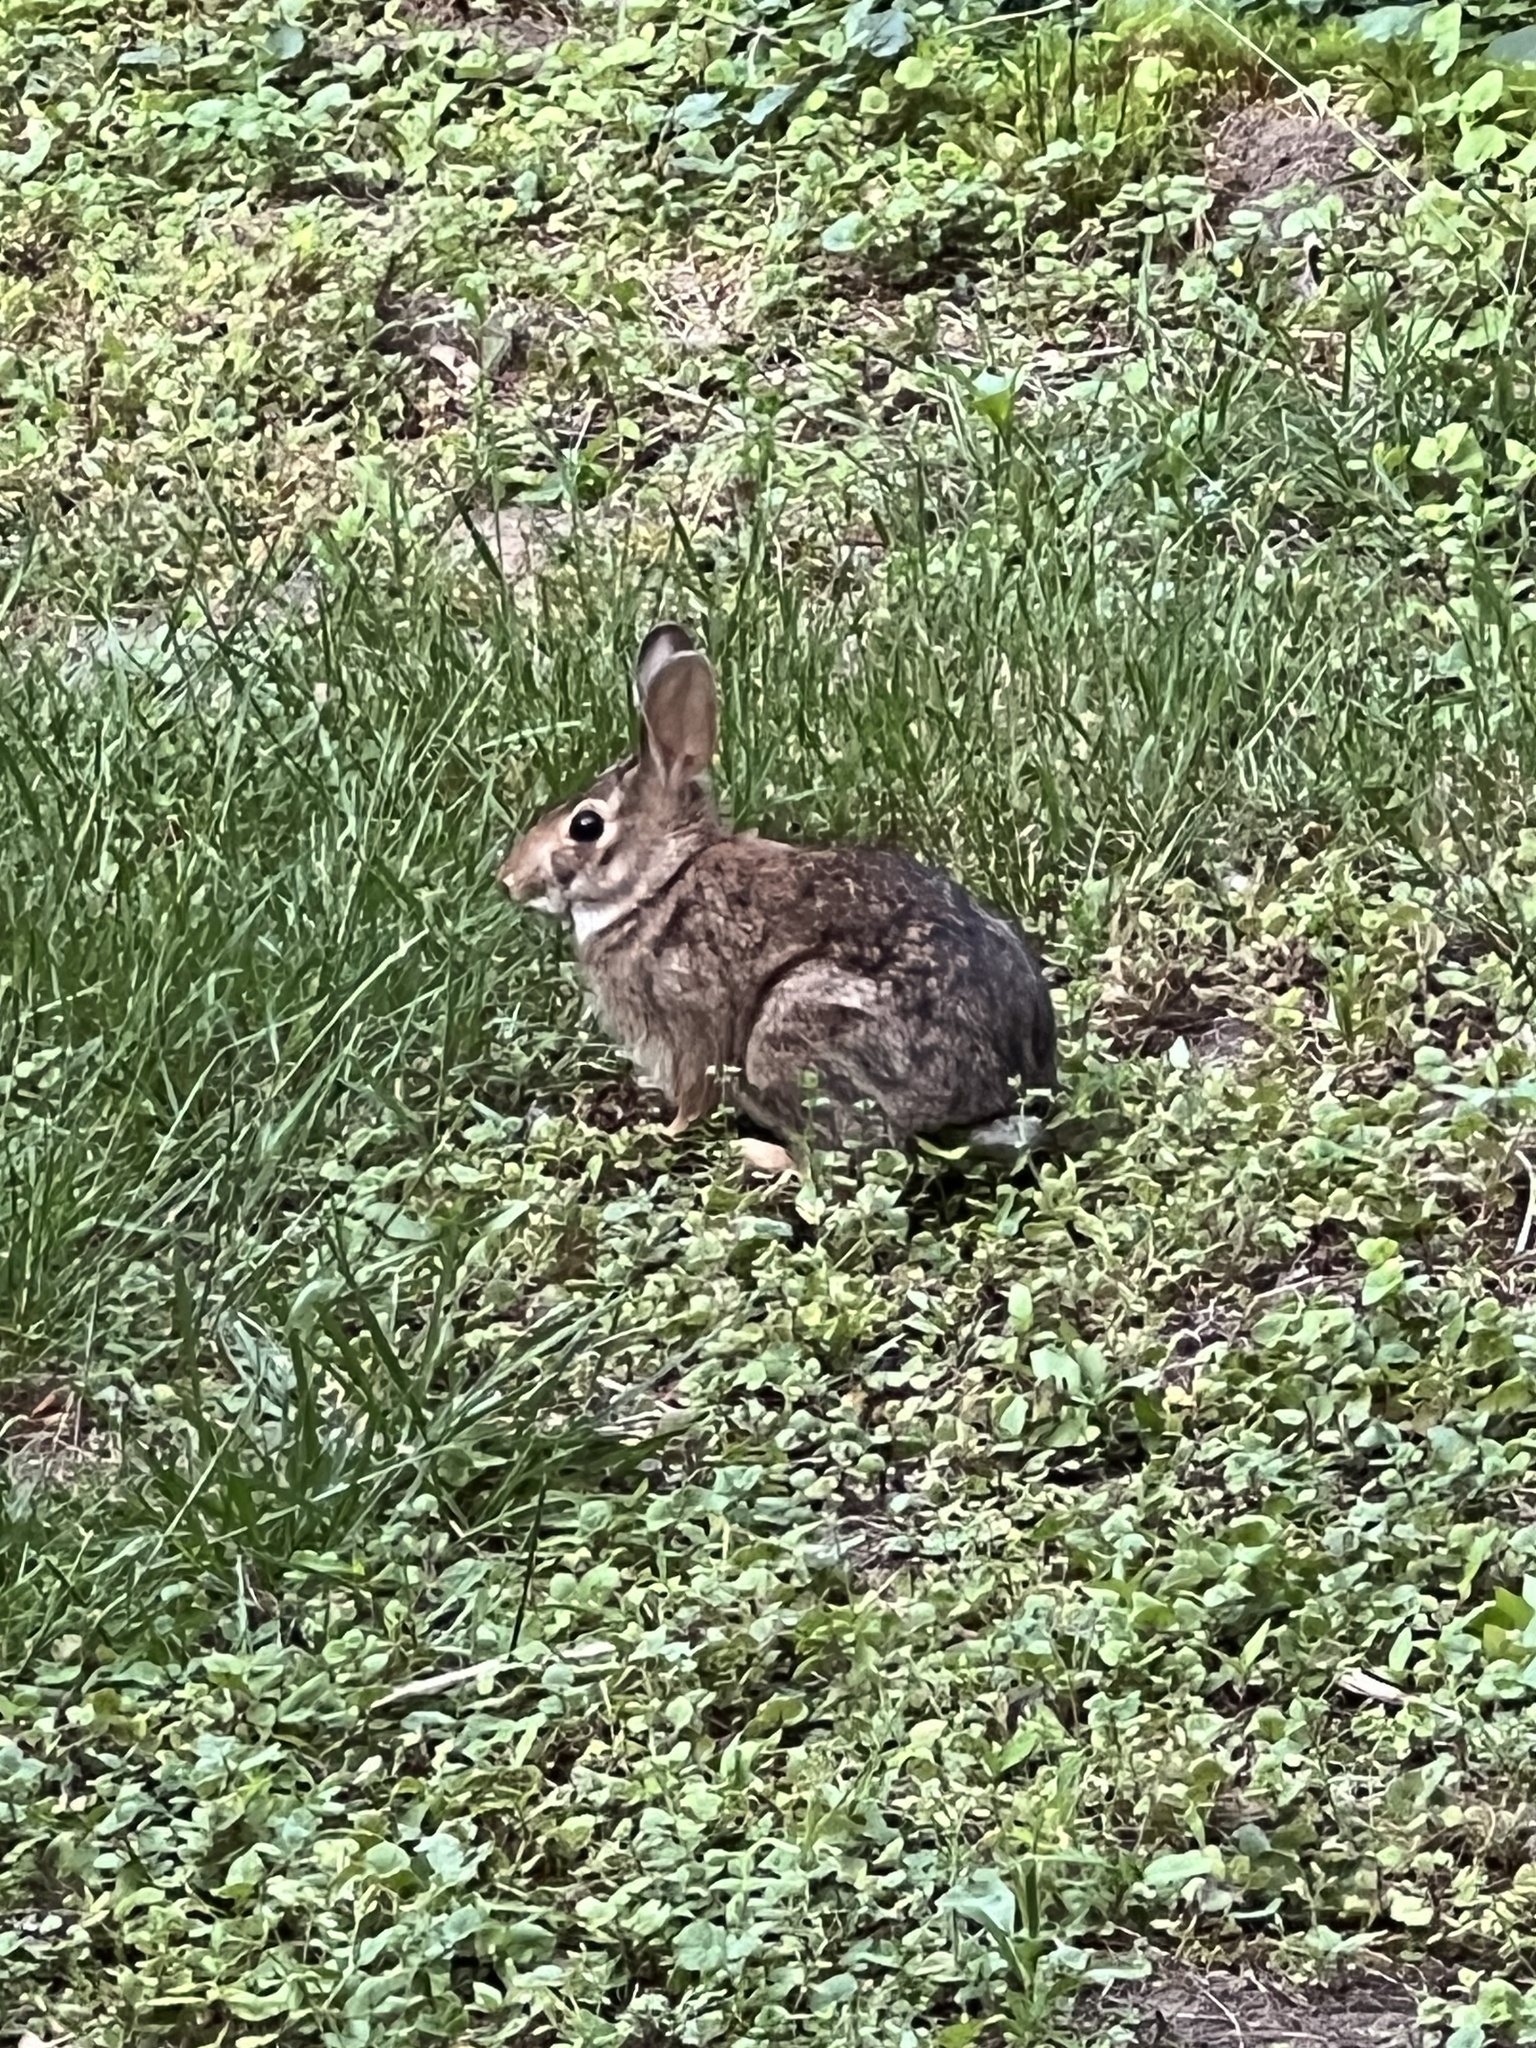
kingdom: Animalia
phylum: Chordata
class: Mammalia
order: Lagomorpha
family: Leporidae
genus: Sylvilagus
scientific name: Sylvilagus floridanus
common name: Eastern cottontail
